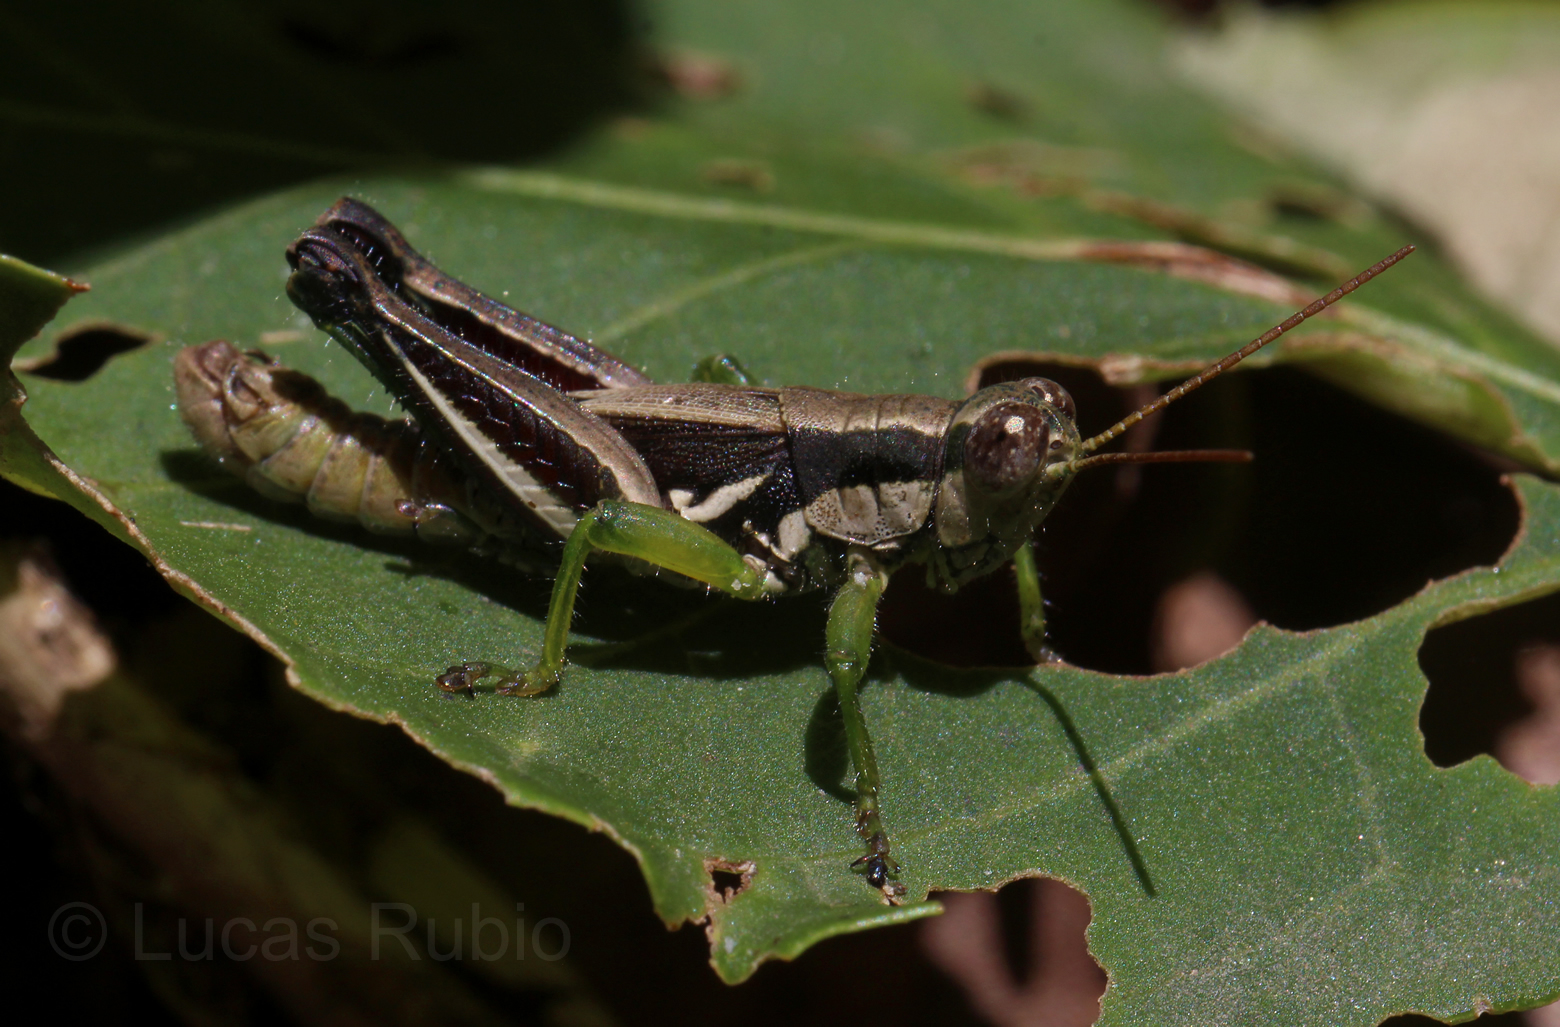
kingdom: Animalia
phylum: Arthropoda
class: Insecta
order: Orthoptera
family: Acrididae
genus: Dichroplus
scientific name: Dichroplus schulzi
